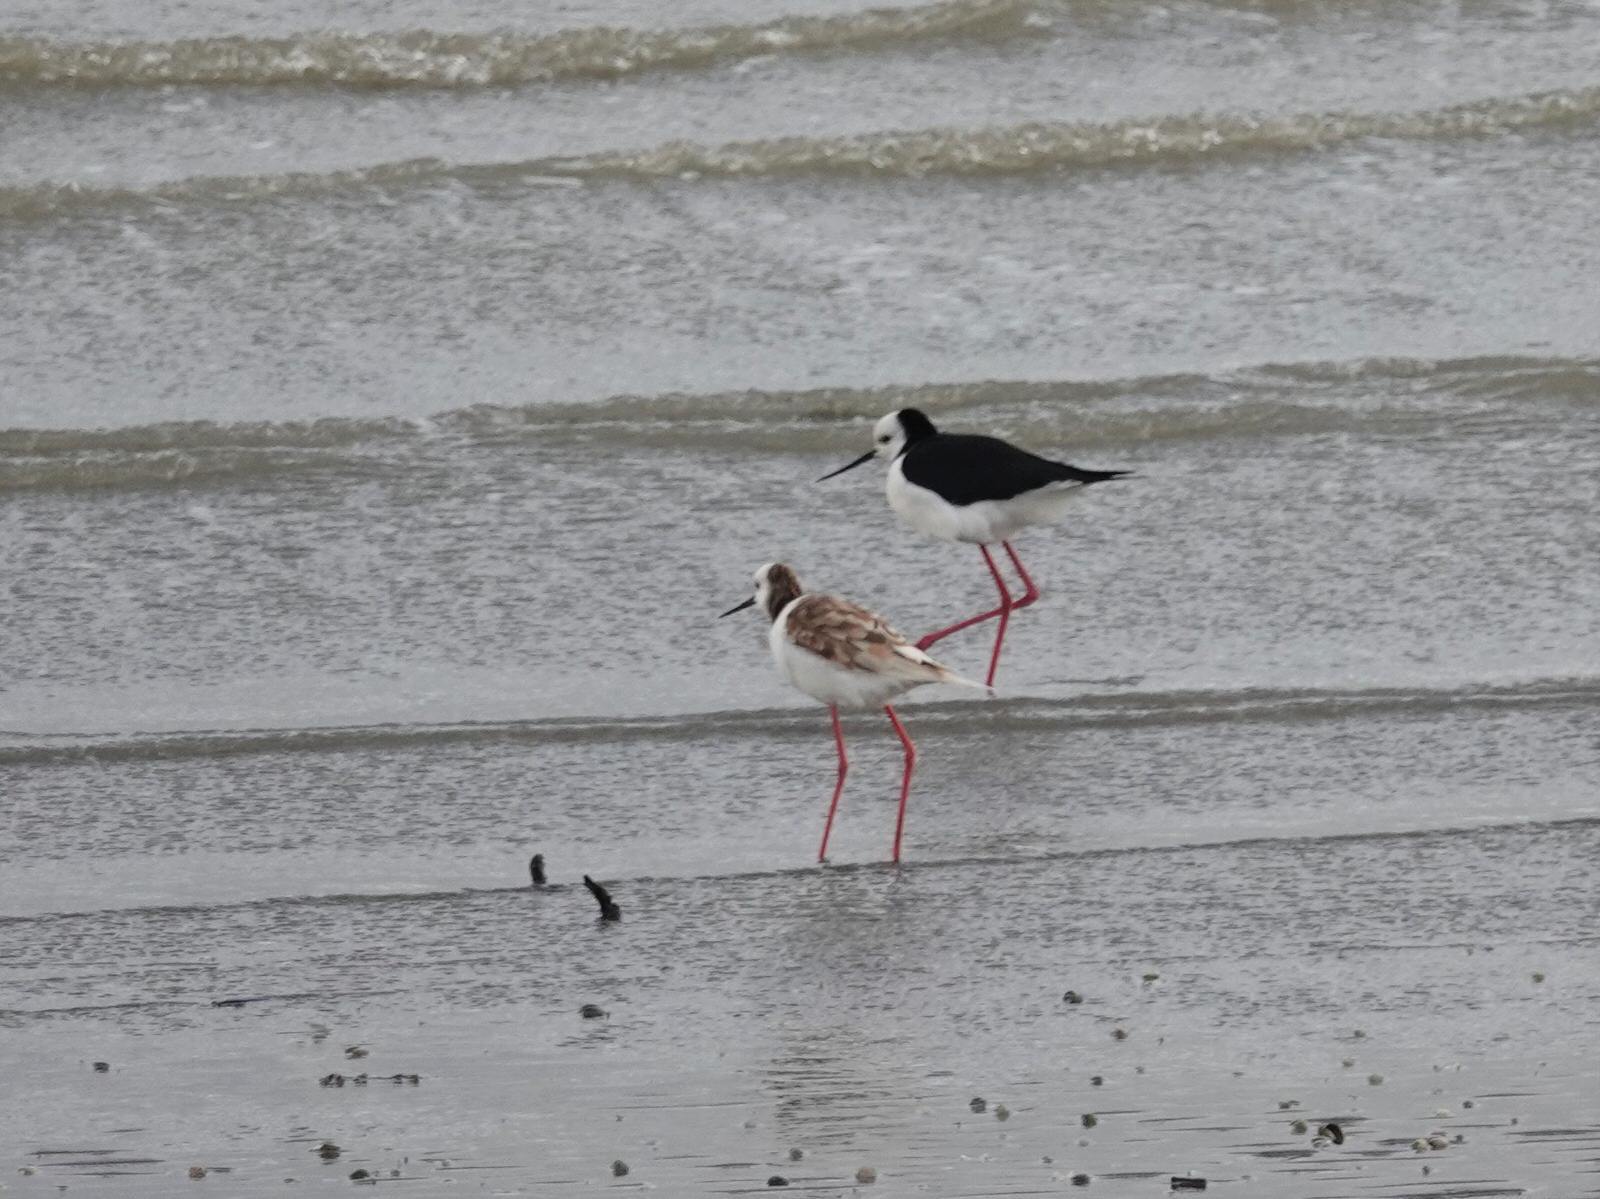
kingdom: Animalia
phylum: Chordata
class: Aves
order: Charadriiformes
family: Recurvirostridae
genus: Himantopus
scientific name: Himantopus leucocephalus
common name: White-headed stilt
